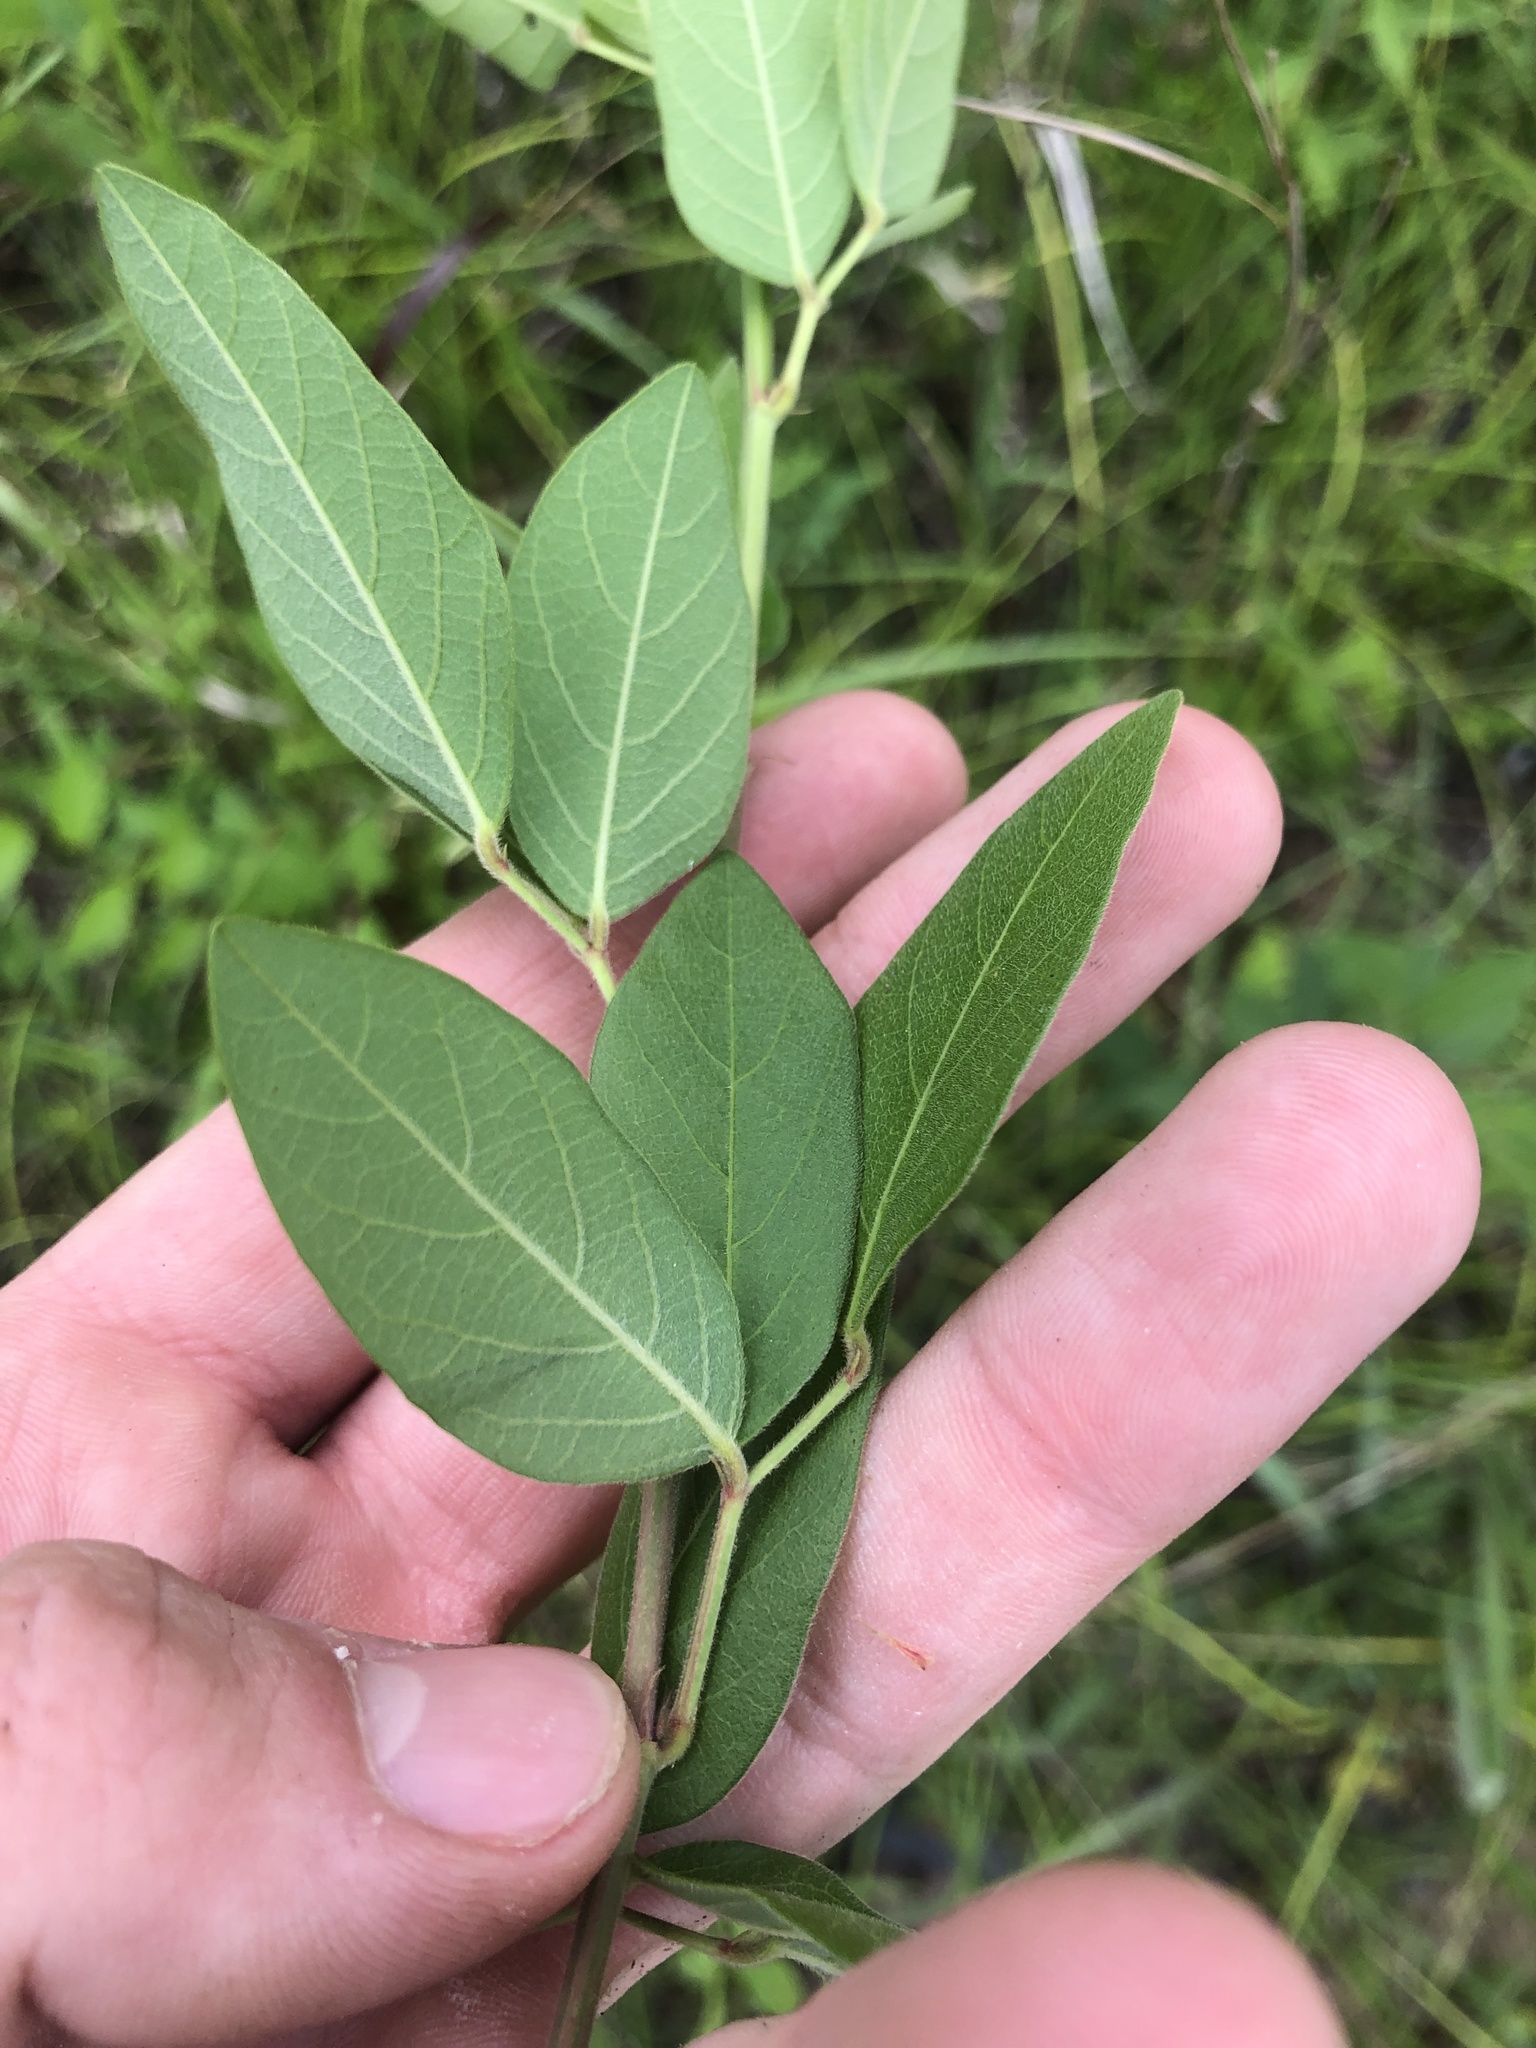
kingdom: Plantae
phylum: Tracheophyta
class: Magnoliopsida
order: Fabales
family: Fabaceae
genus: Desmodium
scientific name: Desmodium nuttallii
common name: Nuttall's tick trefoil
